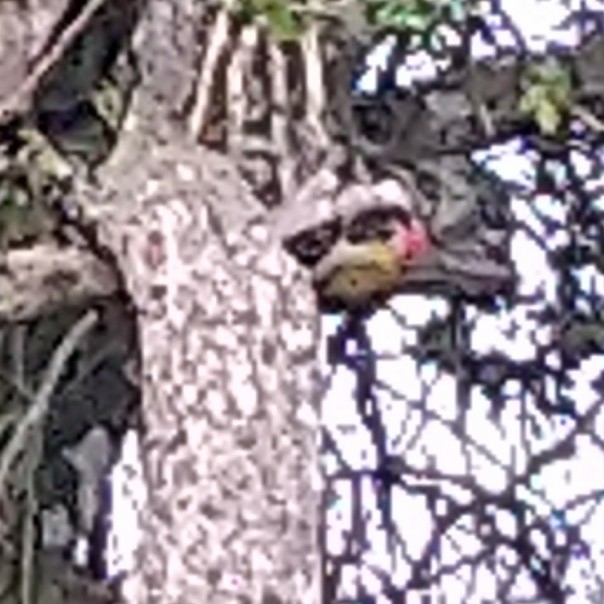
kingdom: Animalia
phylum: Chordata
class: Aves
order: Piciformes
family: Picidae
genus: Dendropicos
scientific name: Dendropicos griseocephalus
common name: Olive woodpecker
